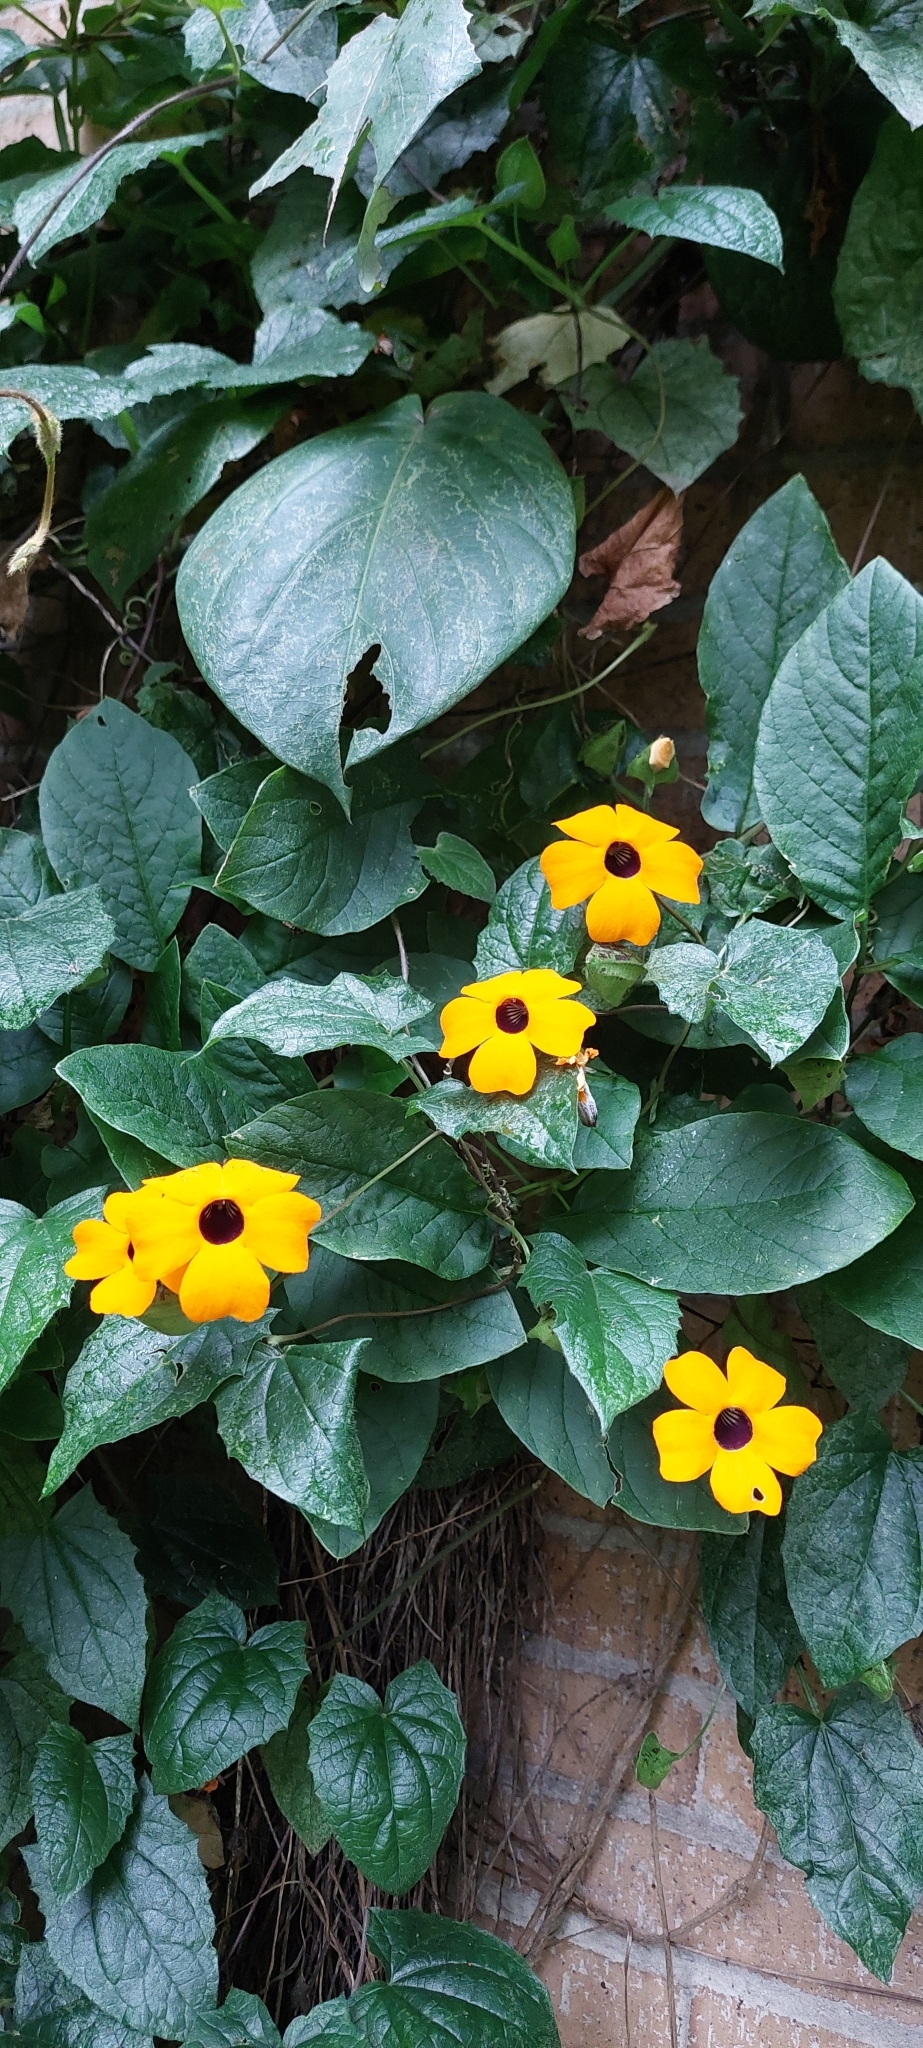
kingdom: Plantae
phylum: Tracheophyta
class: Magnoliopsida
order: Lamiales
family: Acanthaceae
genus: Thunbergia
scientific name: Thunbergia alata
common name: Blackeyed susan vine
